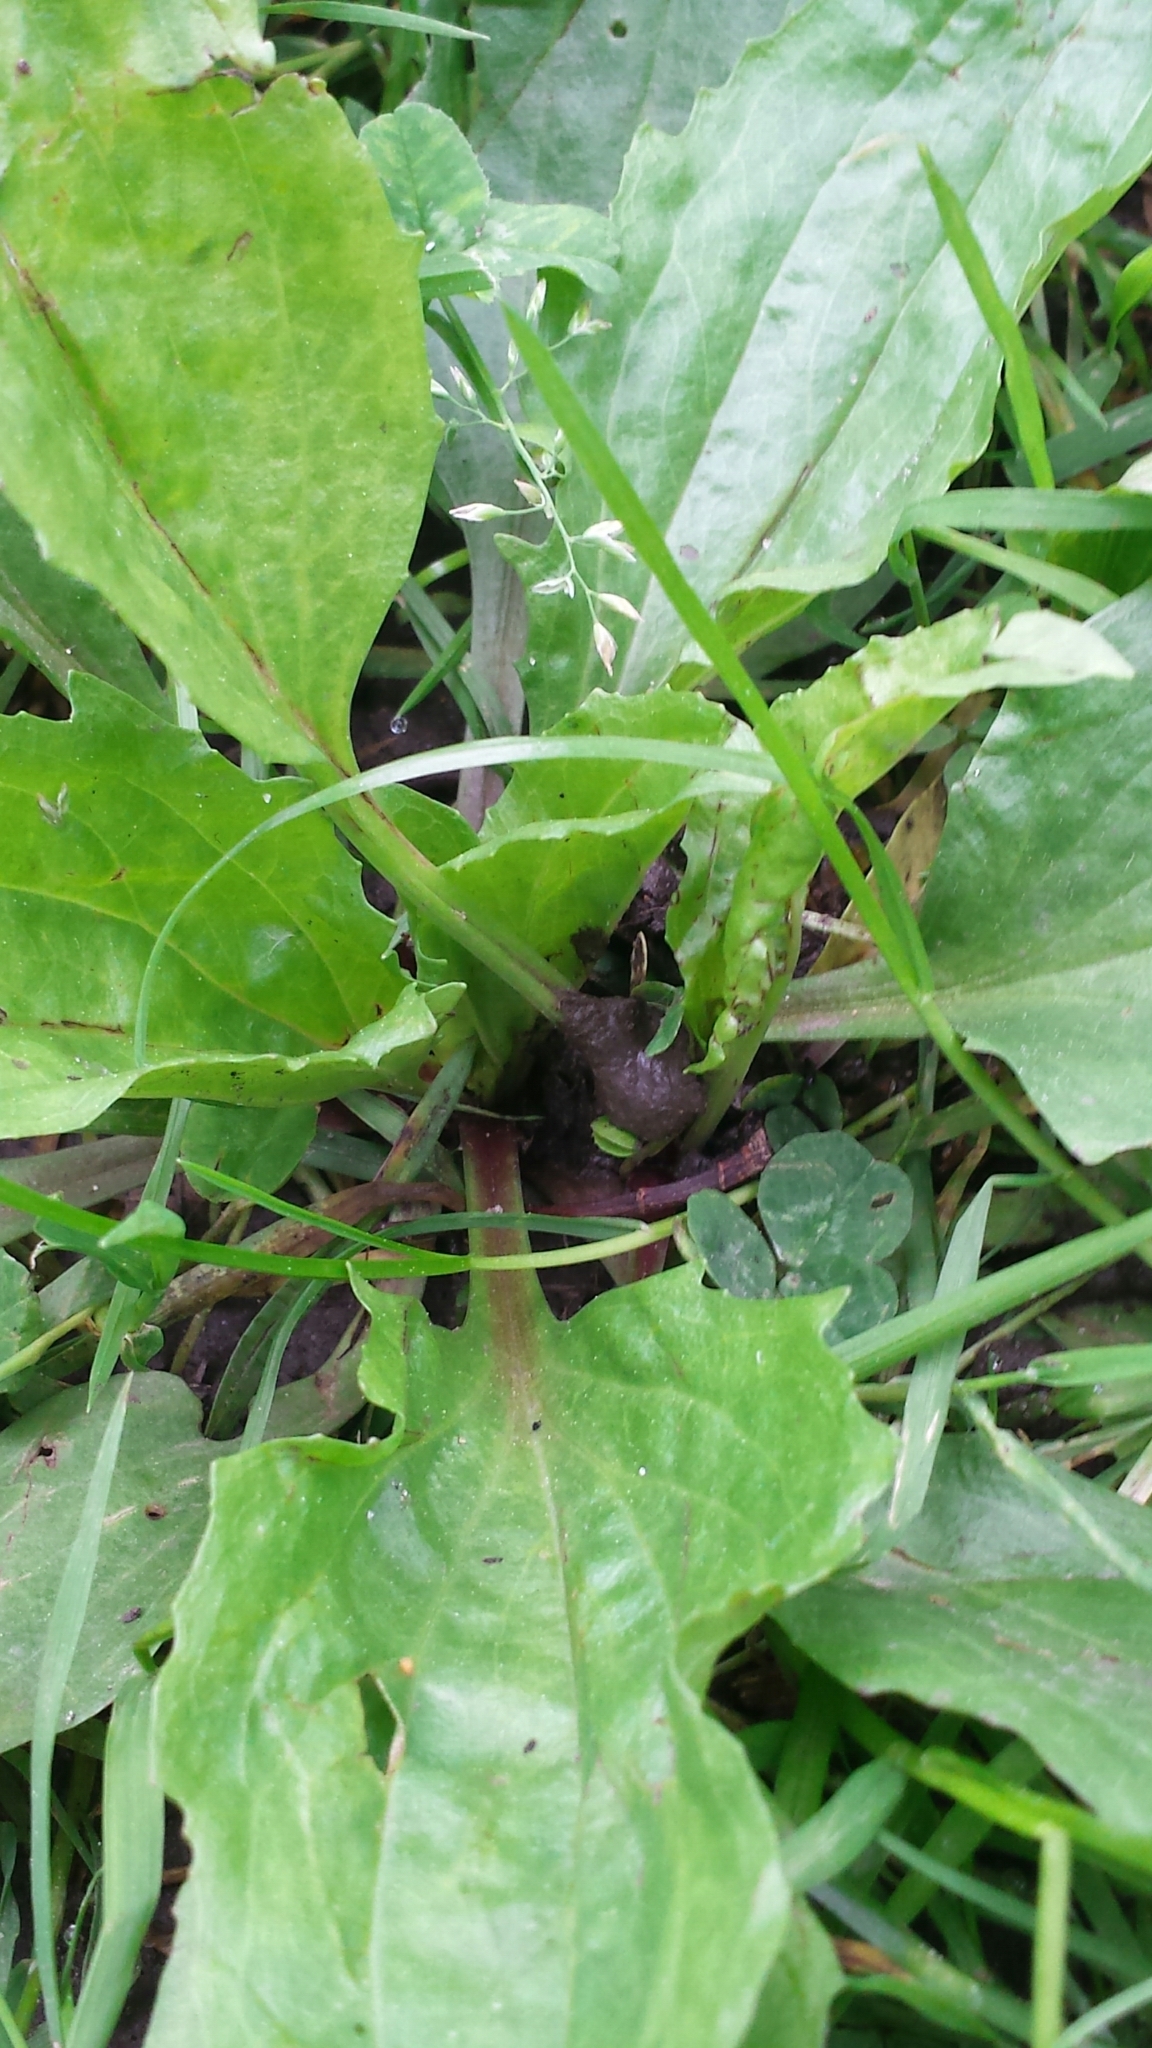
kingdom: Plantae
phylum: Tracheophyta
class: Magnoliopsida
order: Lamiales
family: Plantaginaceae
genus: Plantago
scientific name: Plantago rugelii
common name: American plantain
